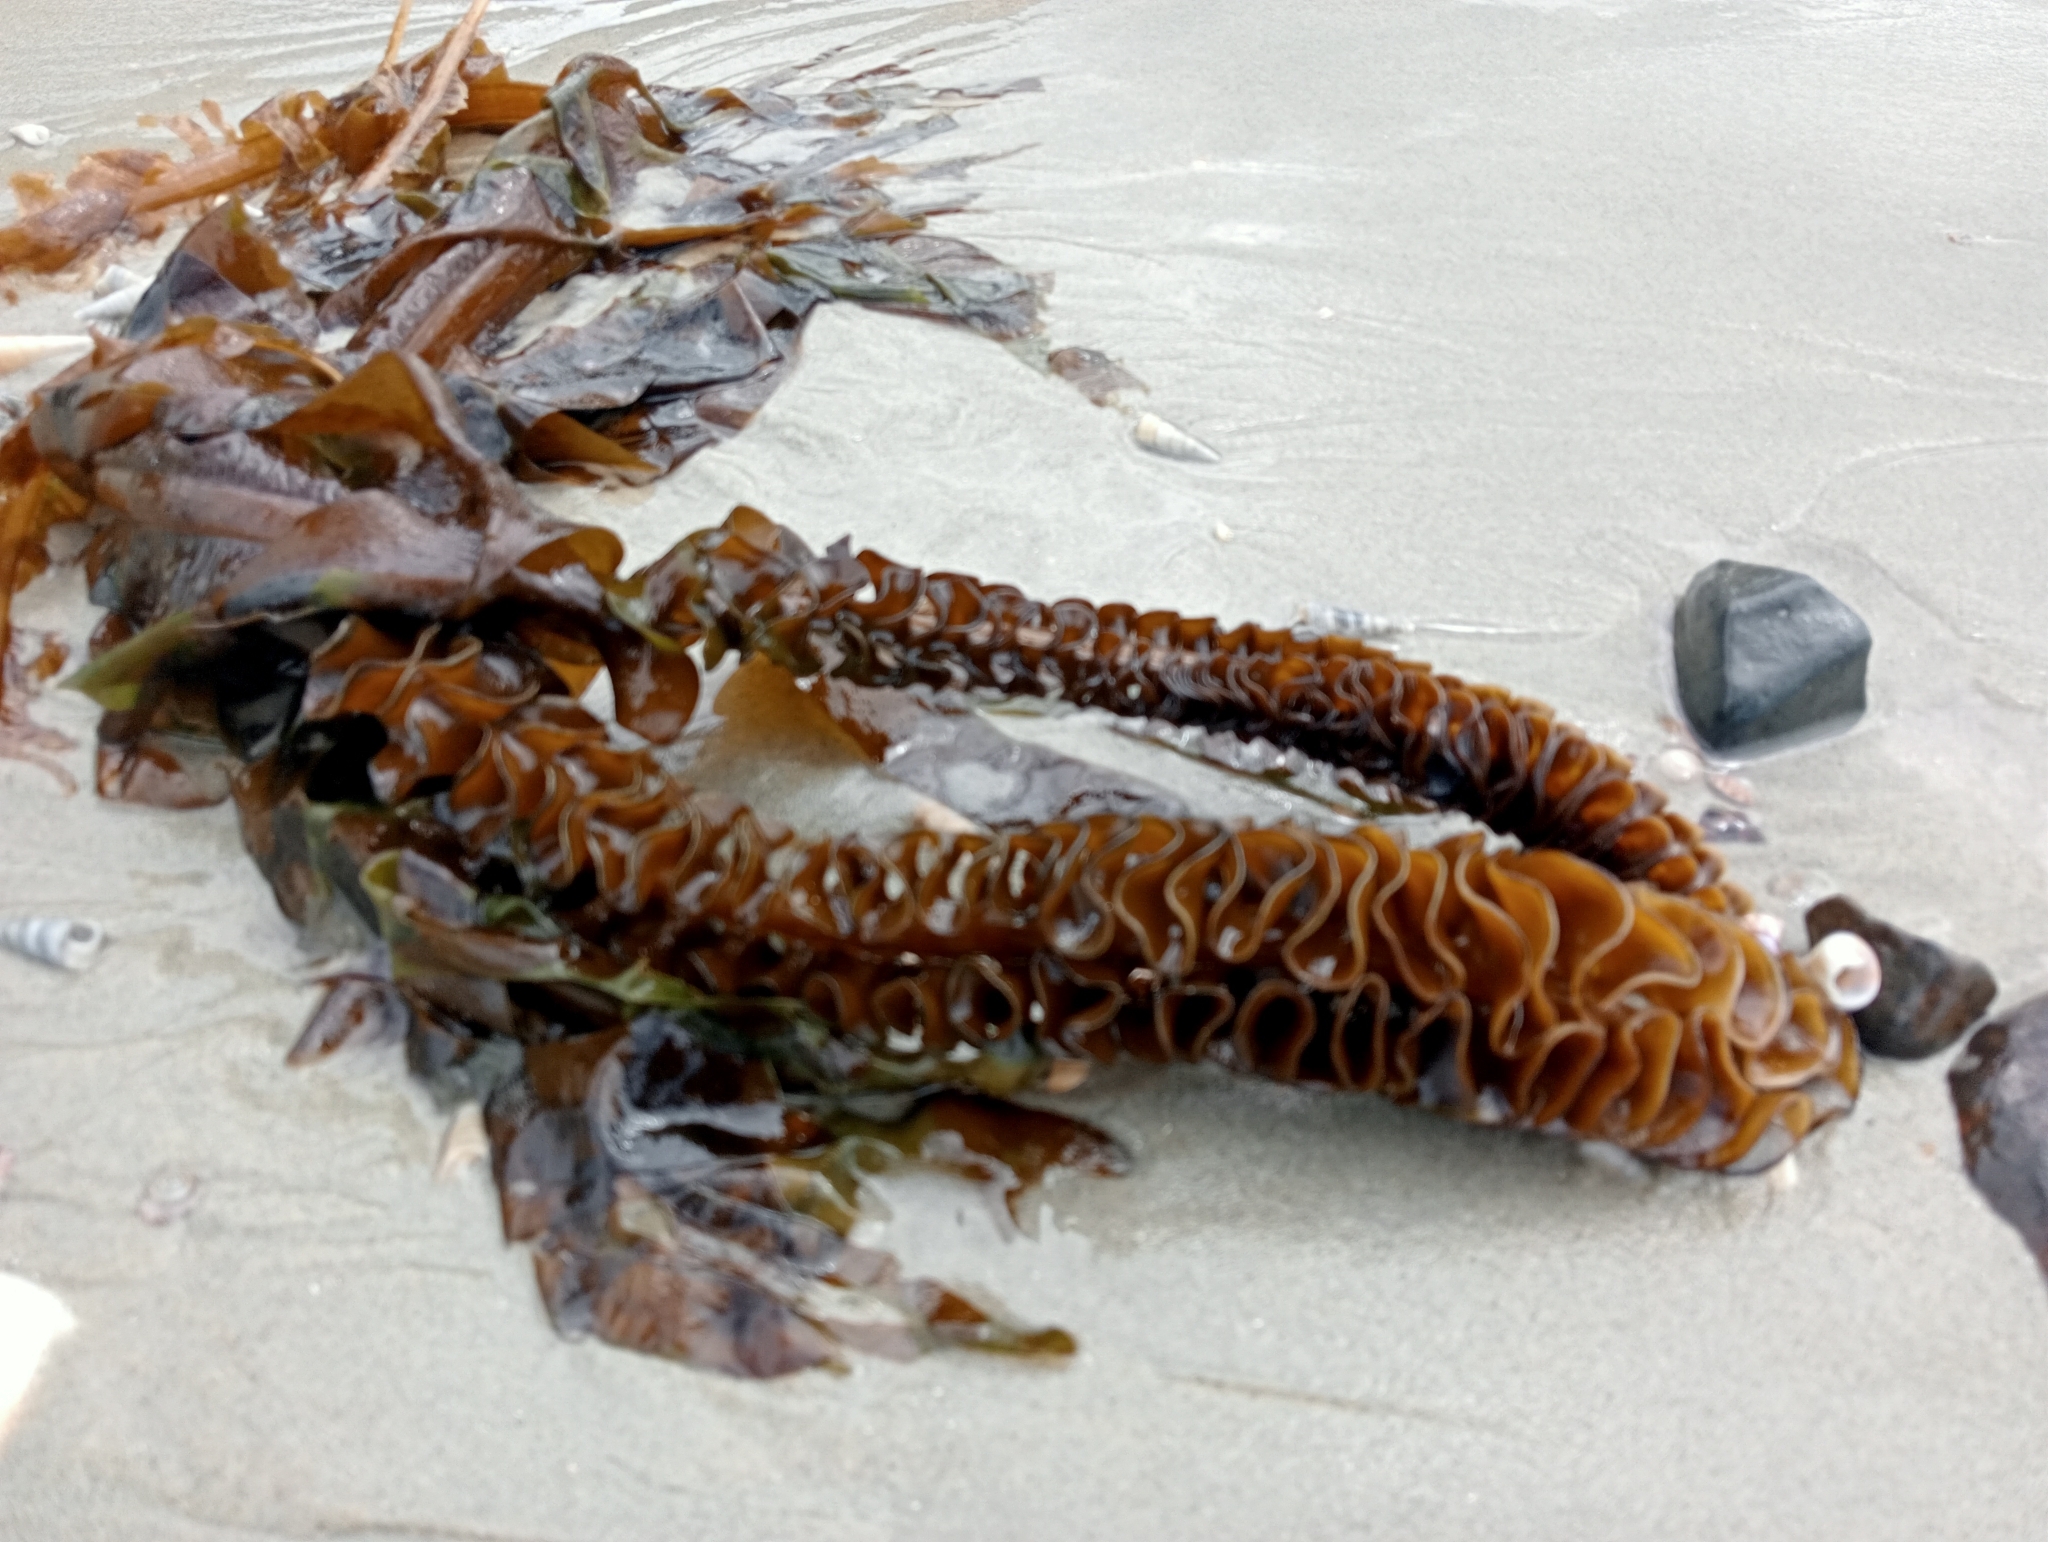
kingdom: Chromista
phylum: Ochrophyta
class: Phaeophyceae
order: Laminariales
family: Alariaceae
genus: Undaria
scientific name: Undaria pinnatifida
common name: Asian kelp
